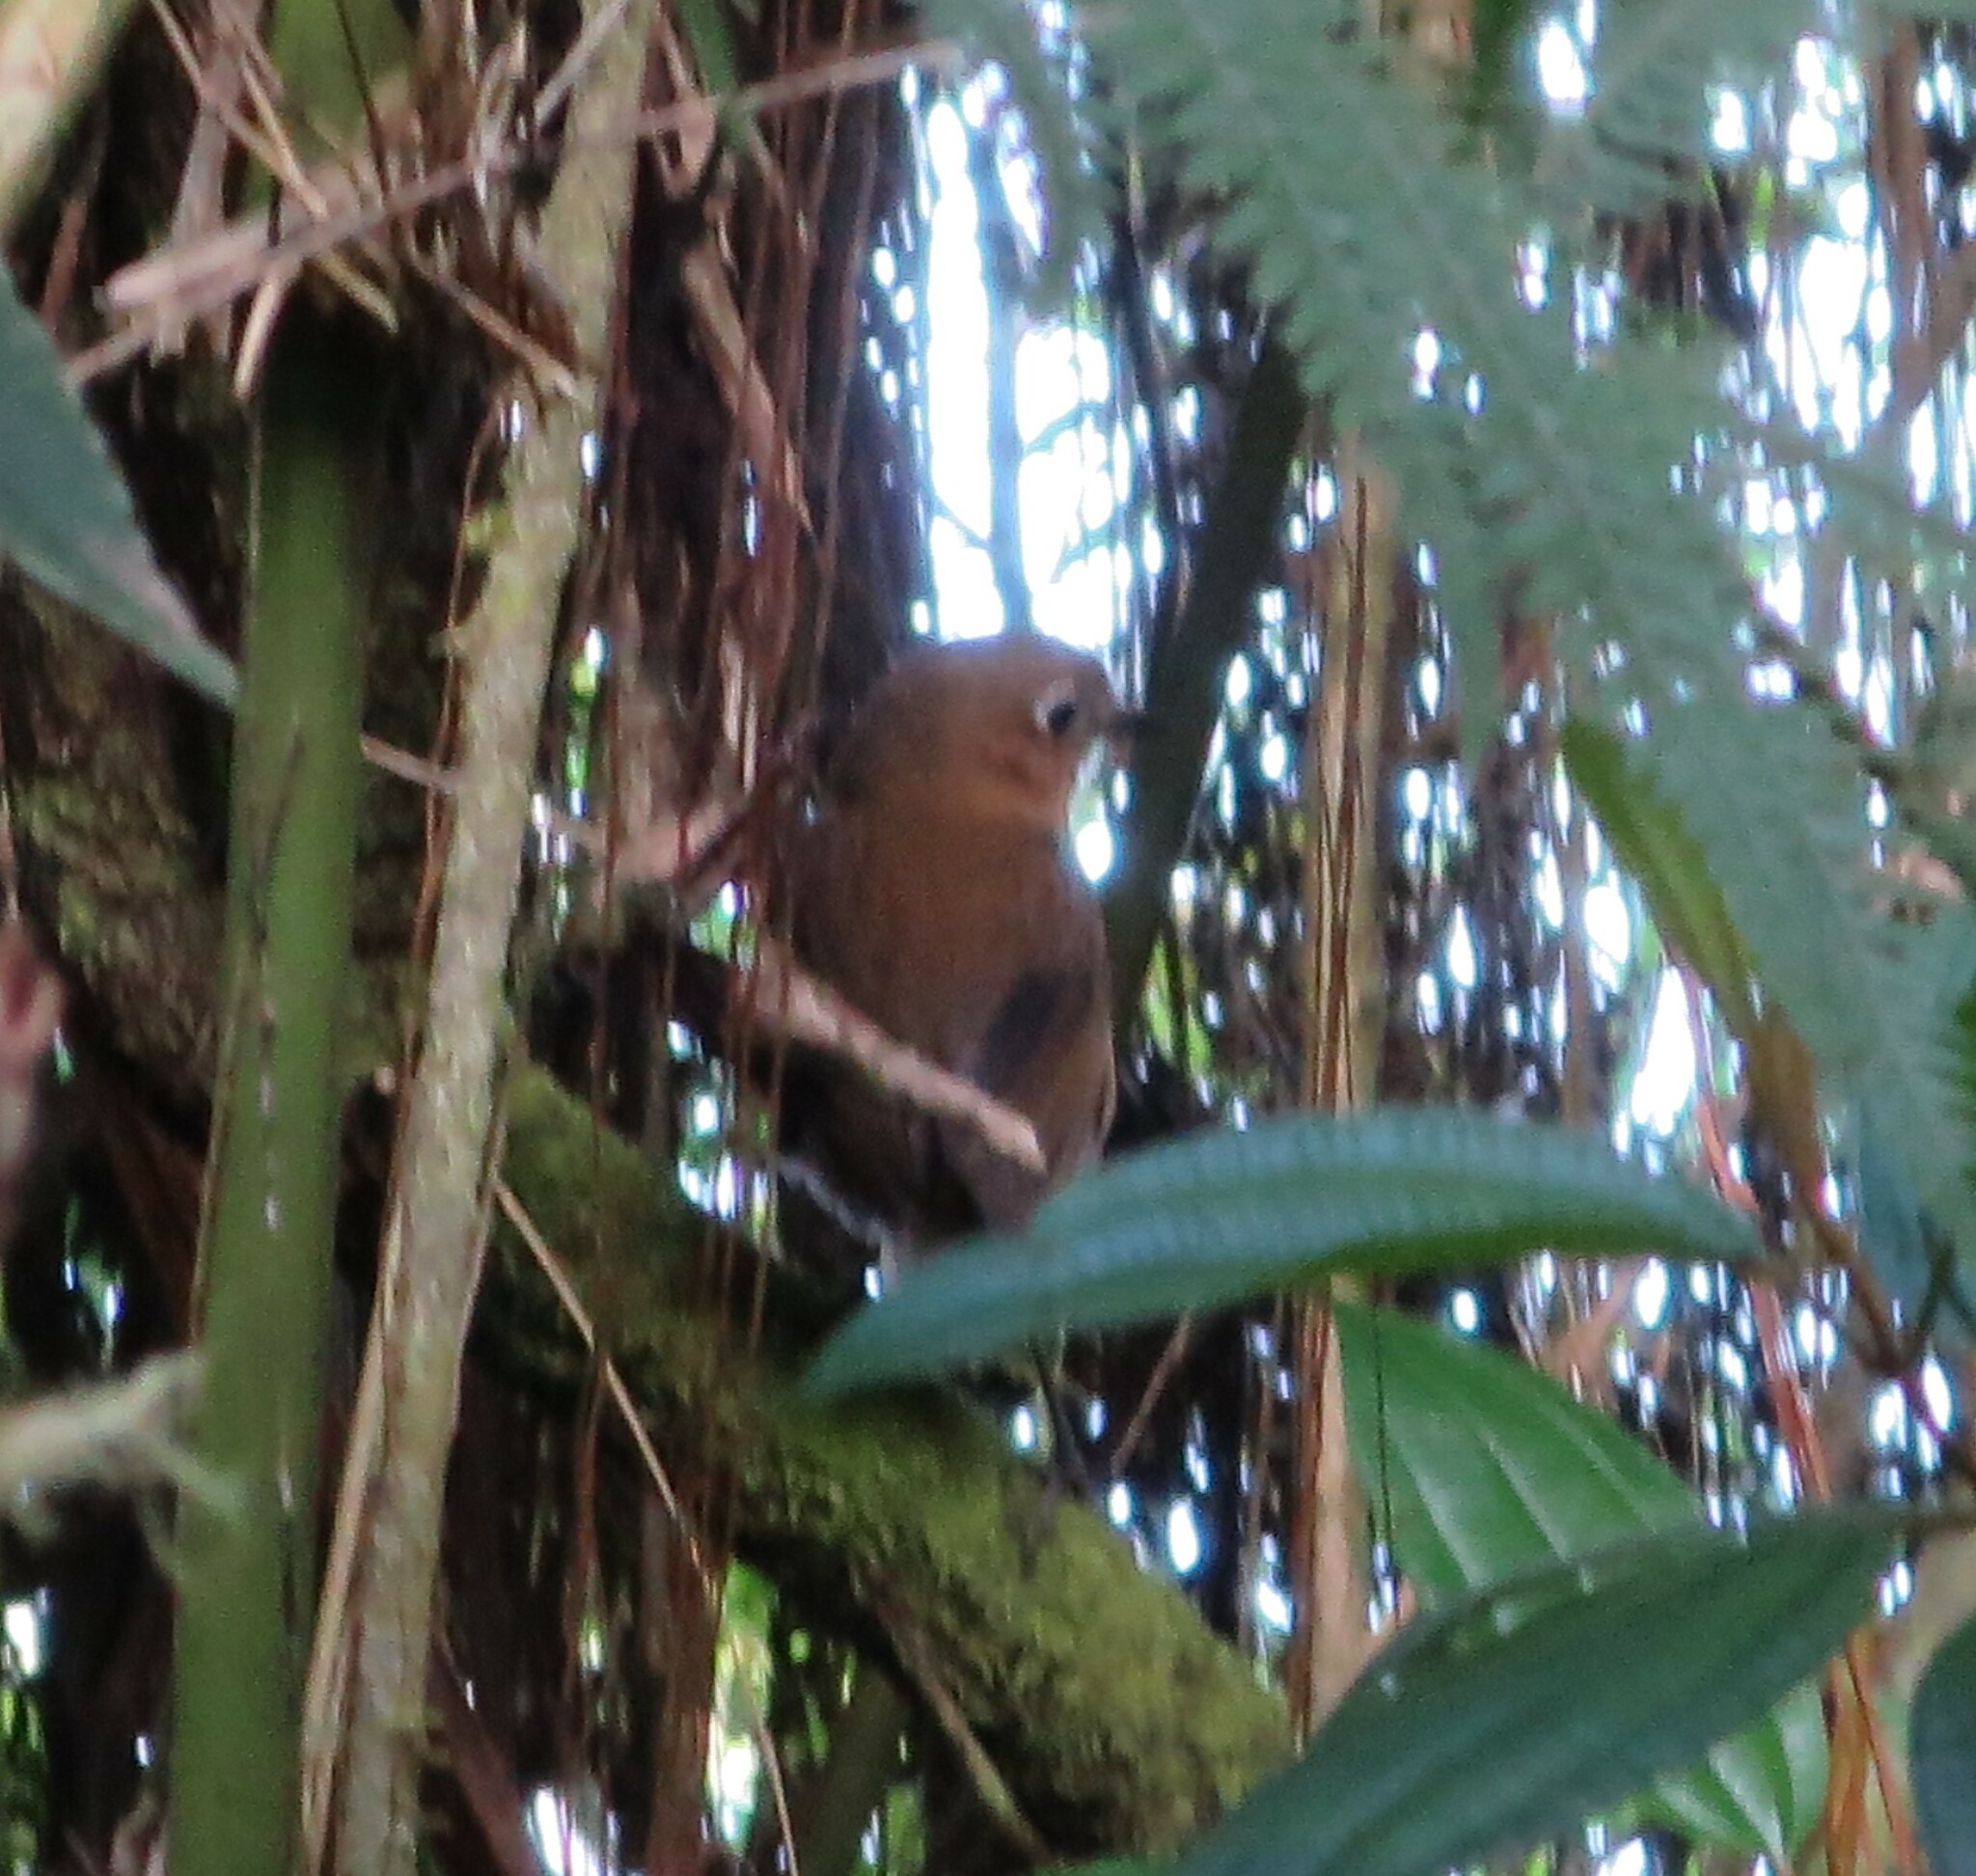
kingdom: Animalia
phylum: Chordata
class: Aves
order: Passeriformes
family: Grallariidae
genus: Grallaria
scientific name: Grallaria spatiator
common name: Sierra nevada antpitta
